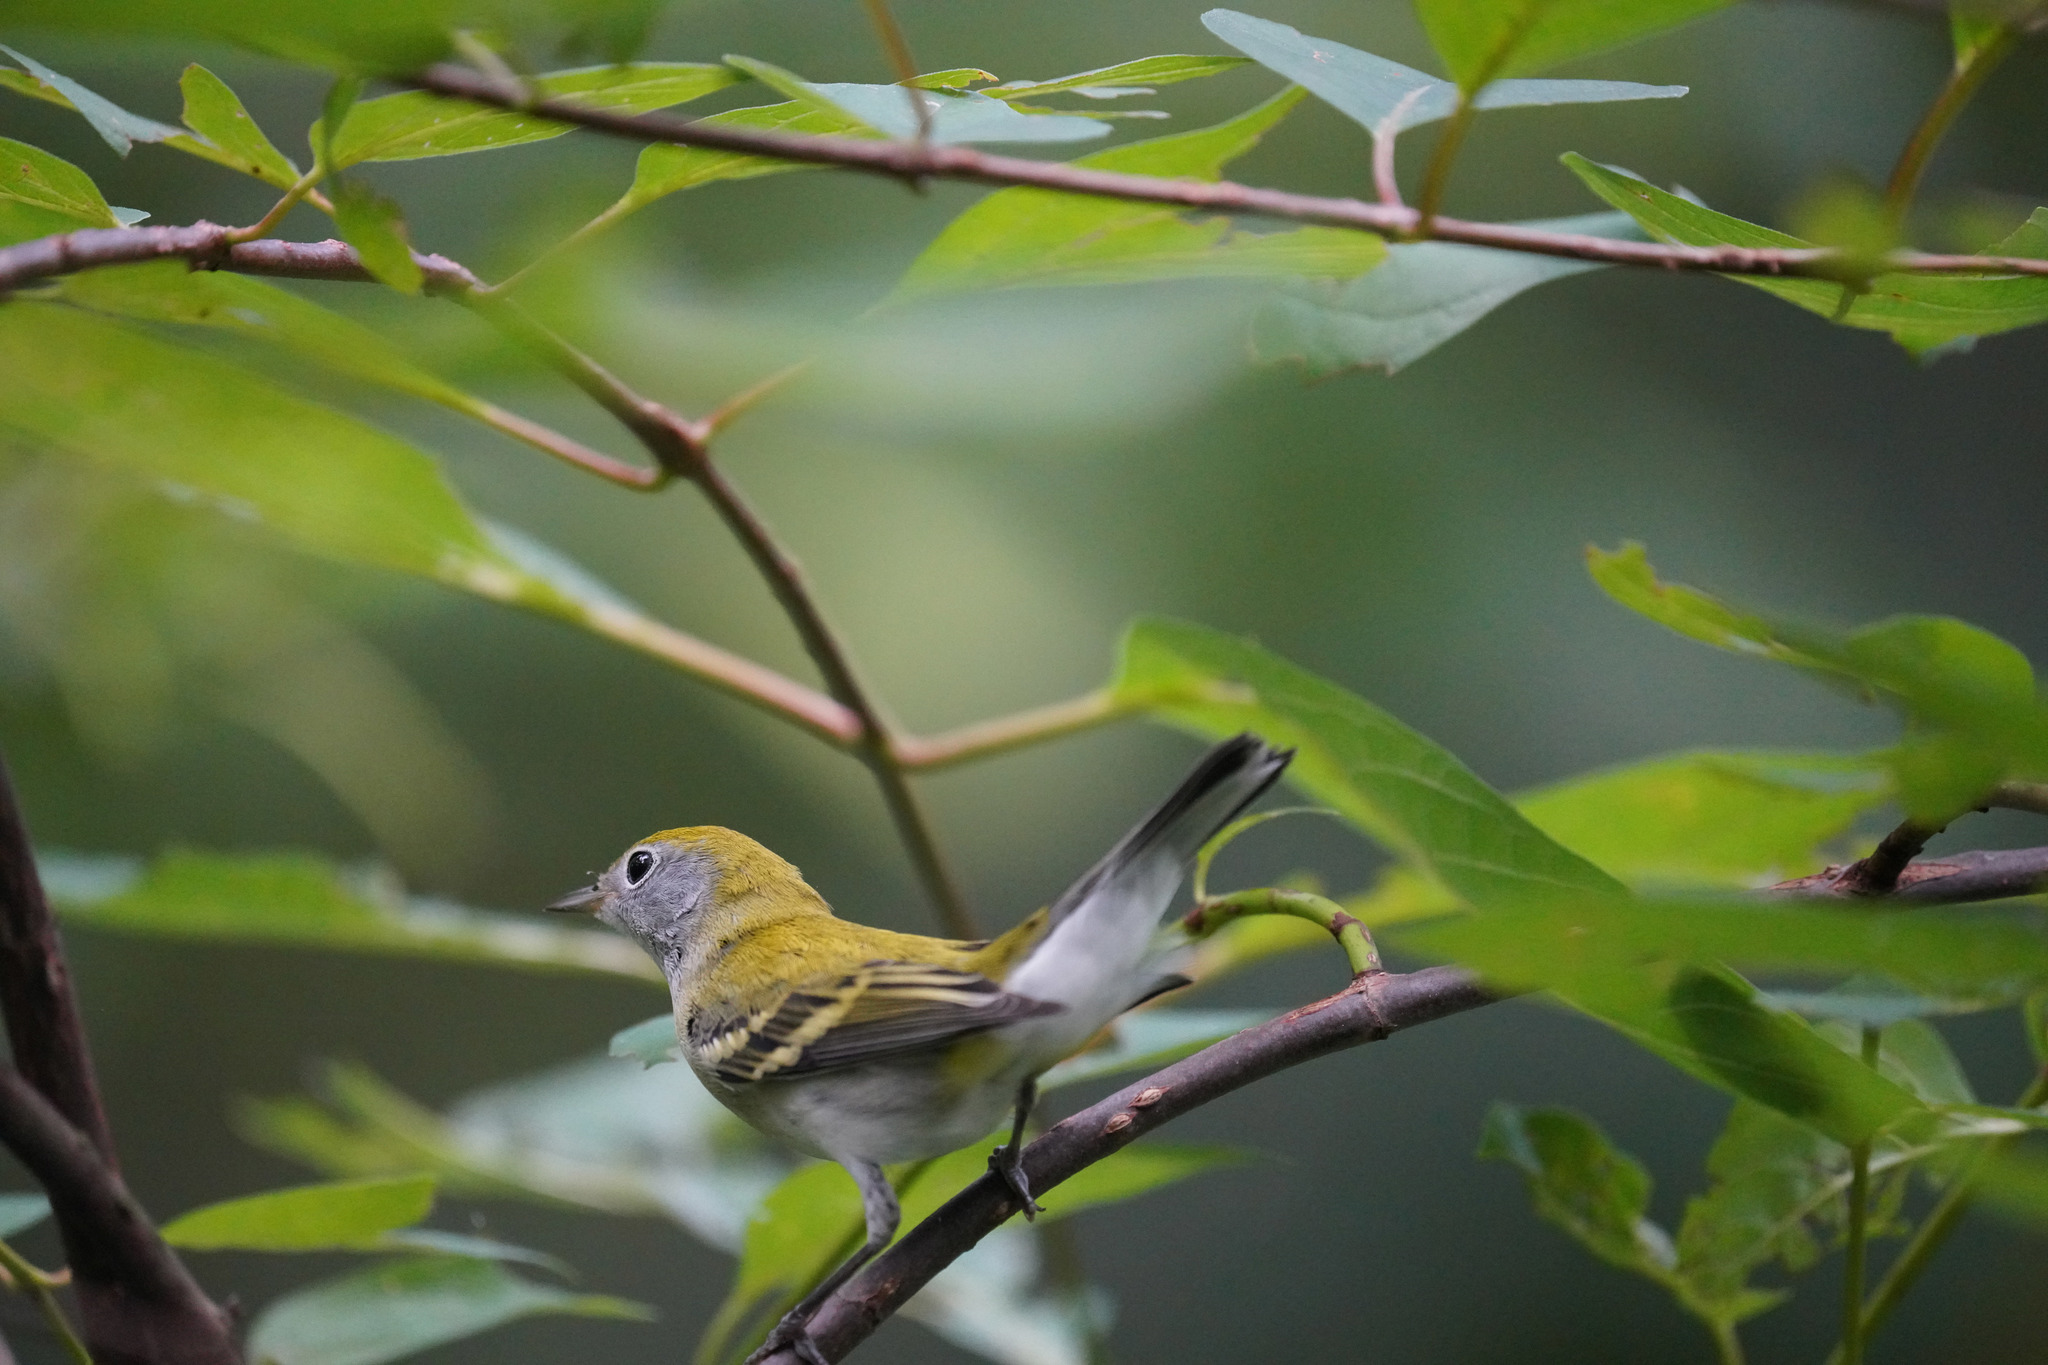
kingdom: Animalia
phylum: Chordata
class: Aves
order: Passeriformes
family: Parulidae
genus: Setophaga
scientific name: Setophaga pensylvanica
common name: Chestnut-sided warbler
